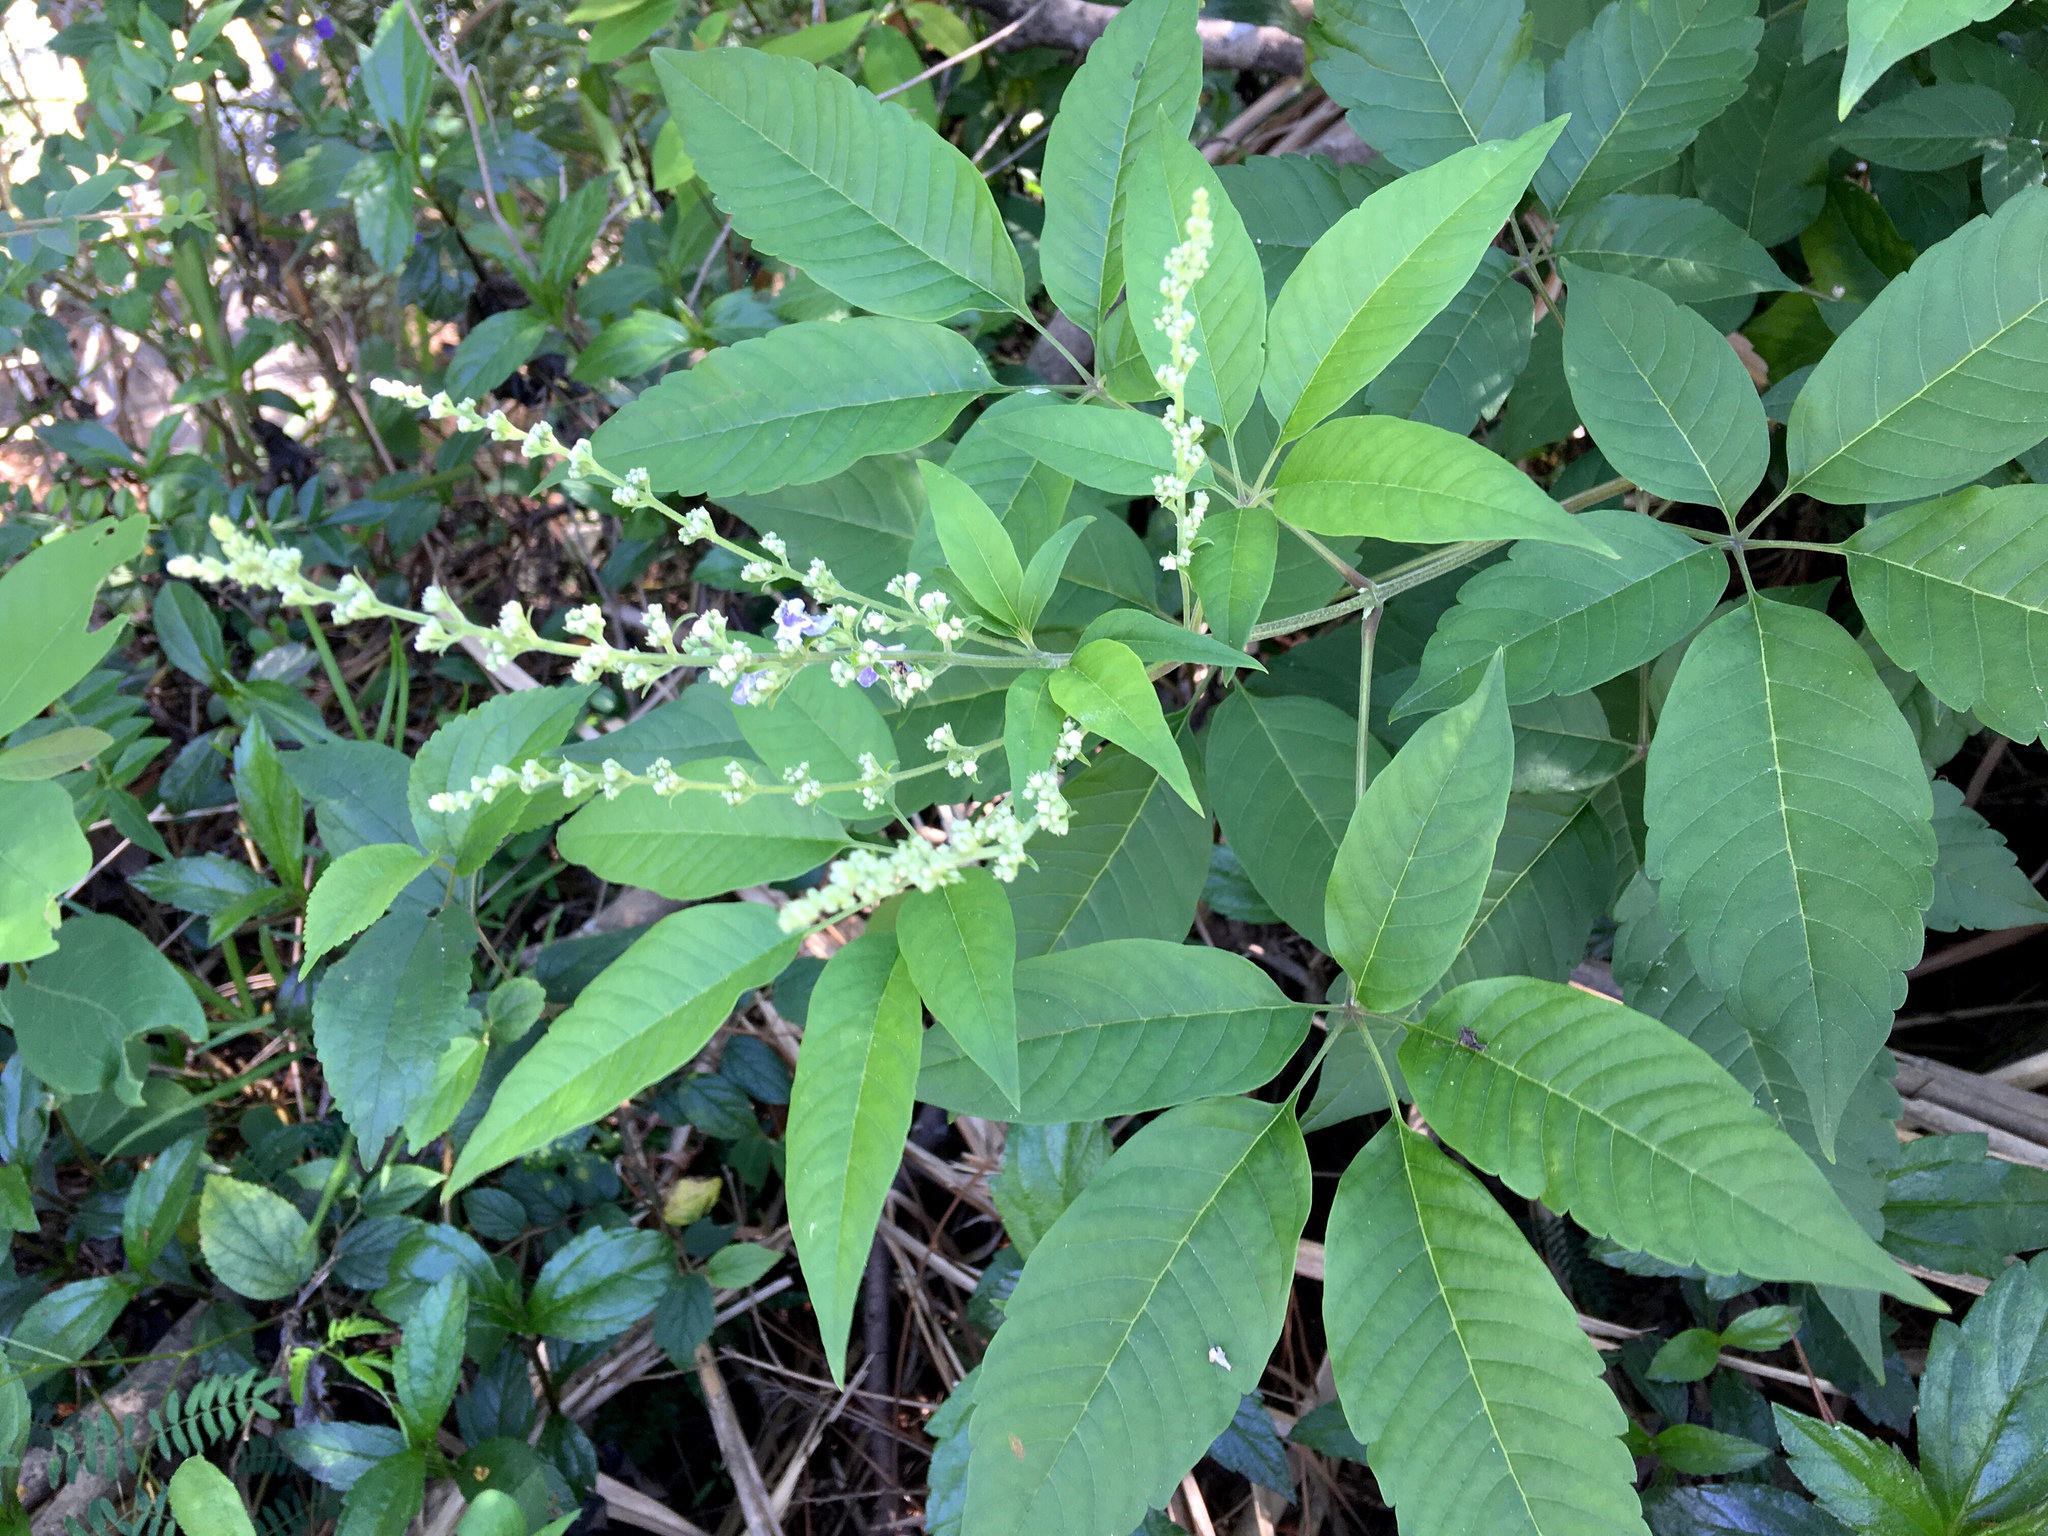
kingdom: Plantae
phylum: Tracheophyta
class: Magnoliopsida
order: Lamiales
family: Lamiaceae
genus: Vitex
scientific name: Vitex negundo
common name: Chinese chastetree
